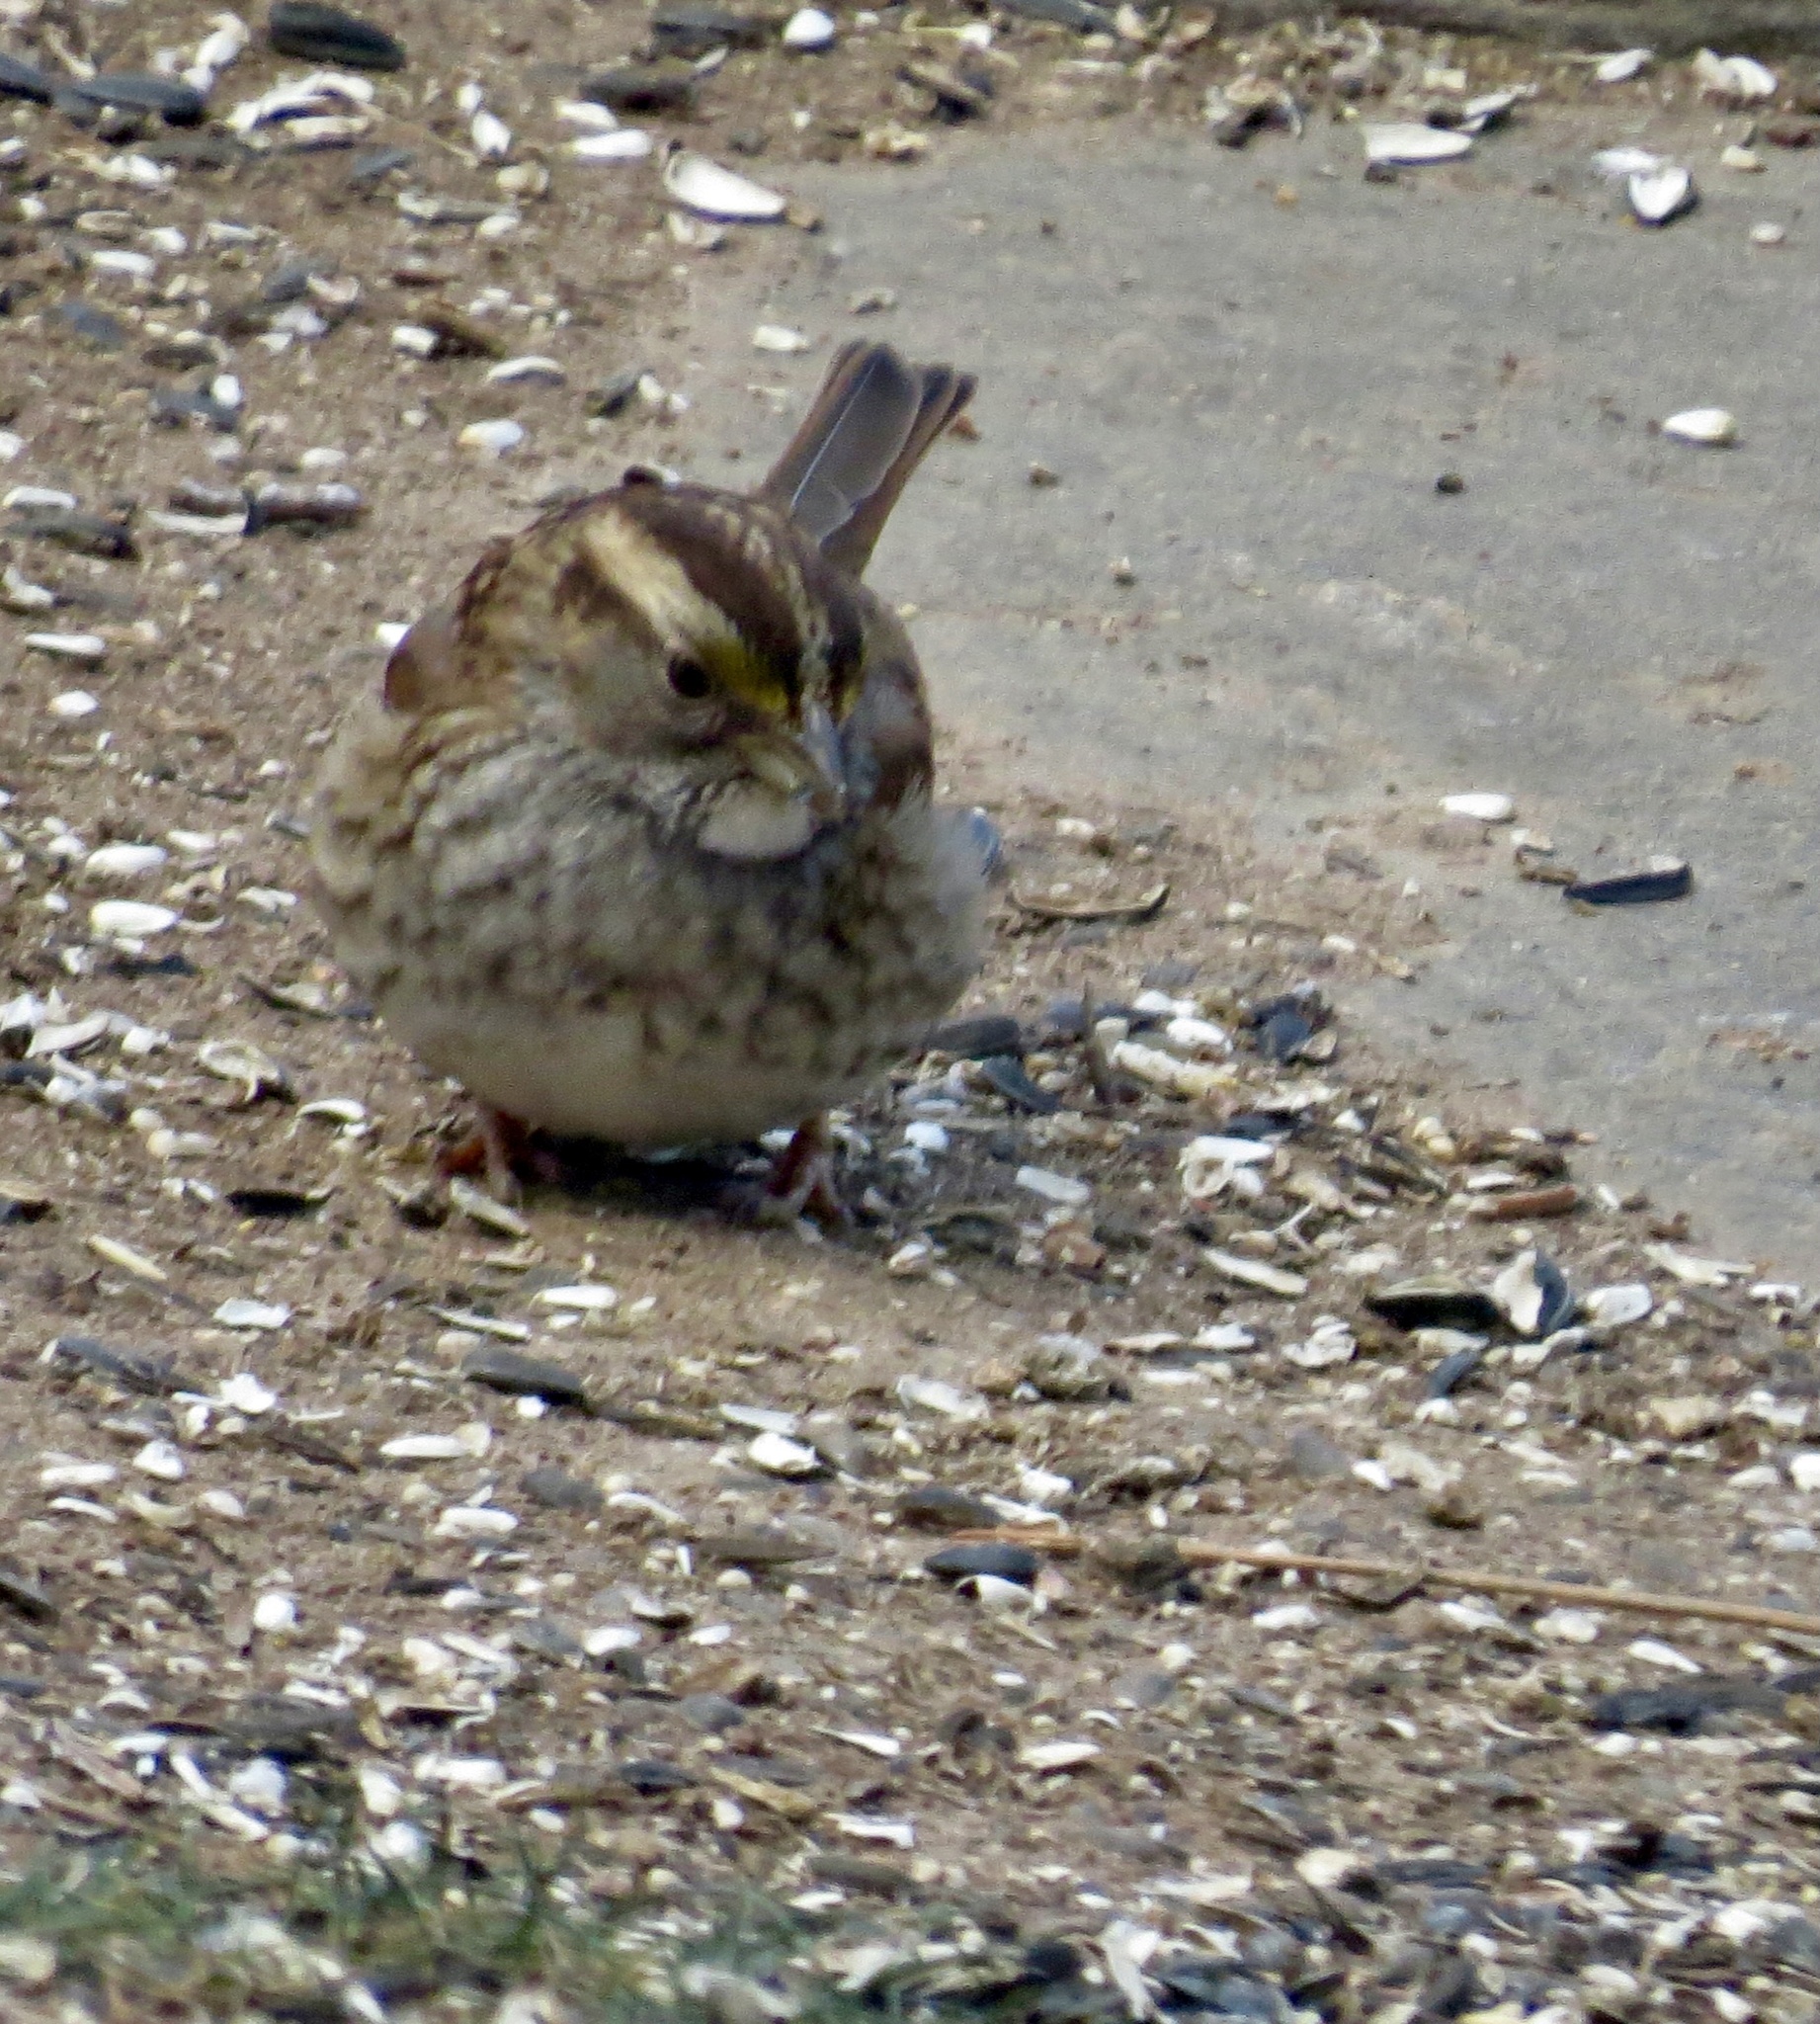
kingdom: Animalia
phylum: Chordata
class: Aves
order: Passeriformes
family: Passerellidae
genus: Zonotrichia
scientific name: Zonotrichia albicollis
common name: White-throated sparrow
